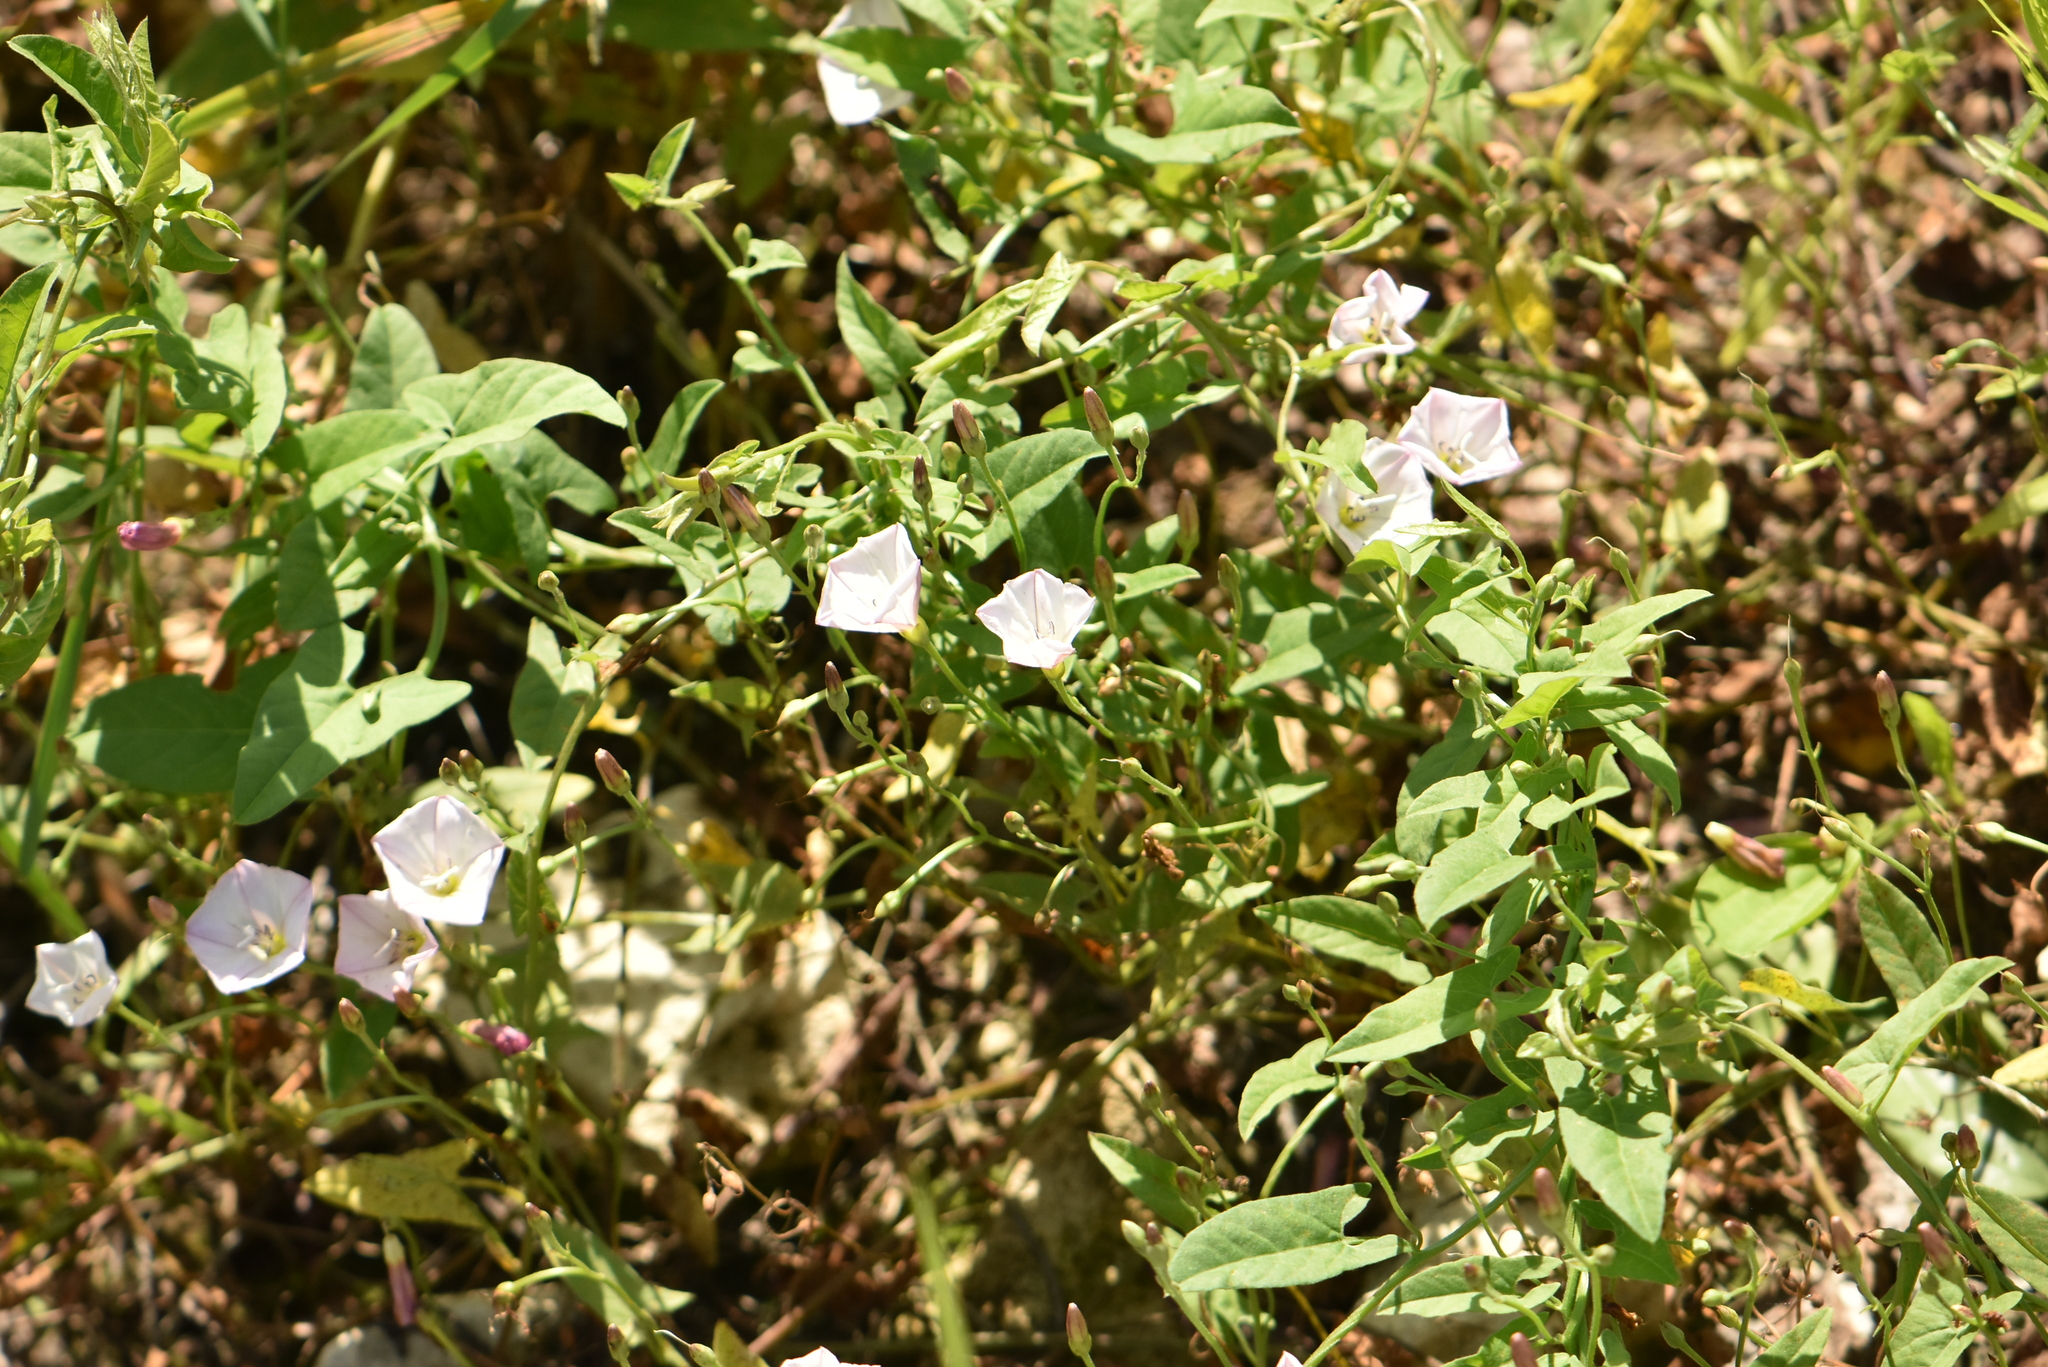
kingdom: Plantae
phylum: Tracheophyta
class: Magnoliopsida
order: Solanales
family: Convolvulaceae
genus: Convolvulus
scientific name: Convolvulus arvensis
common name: Field bindweed
